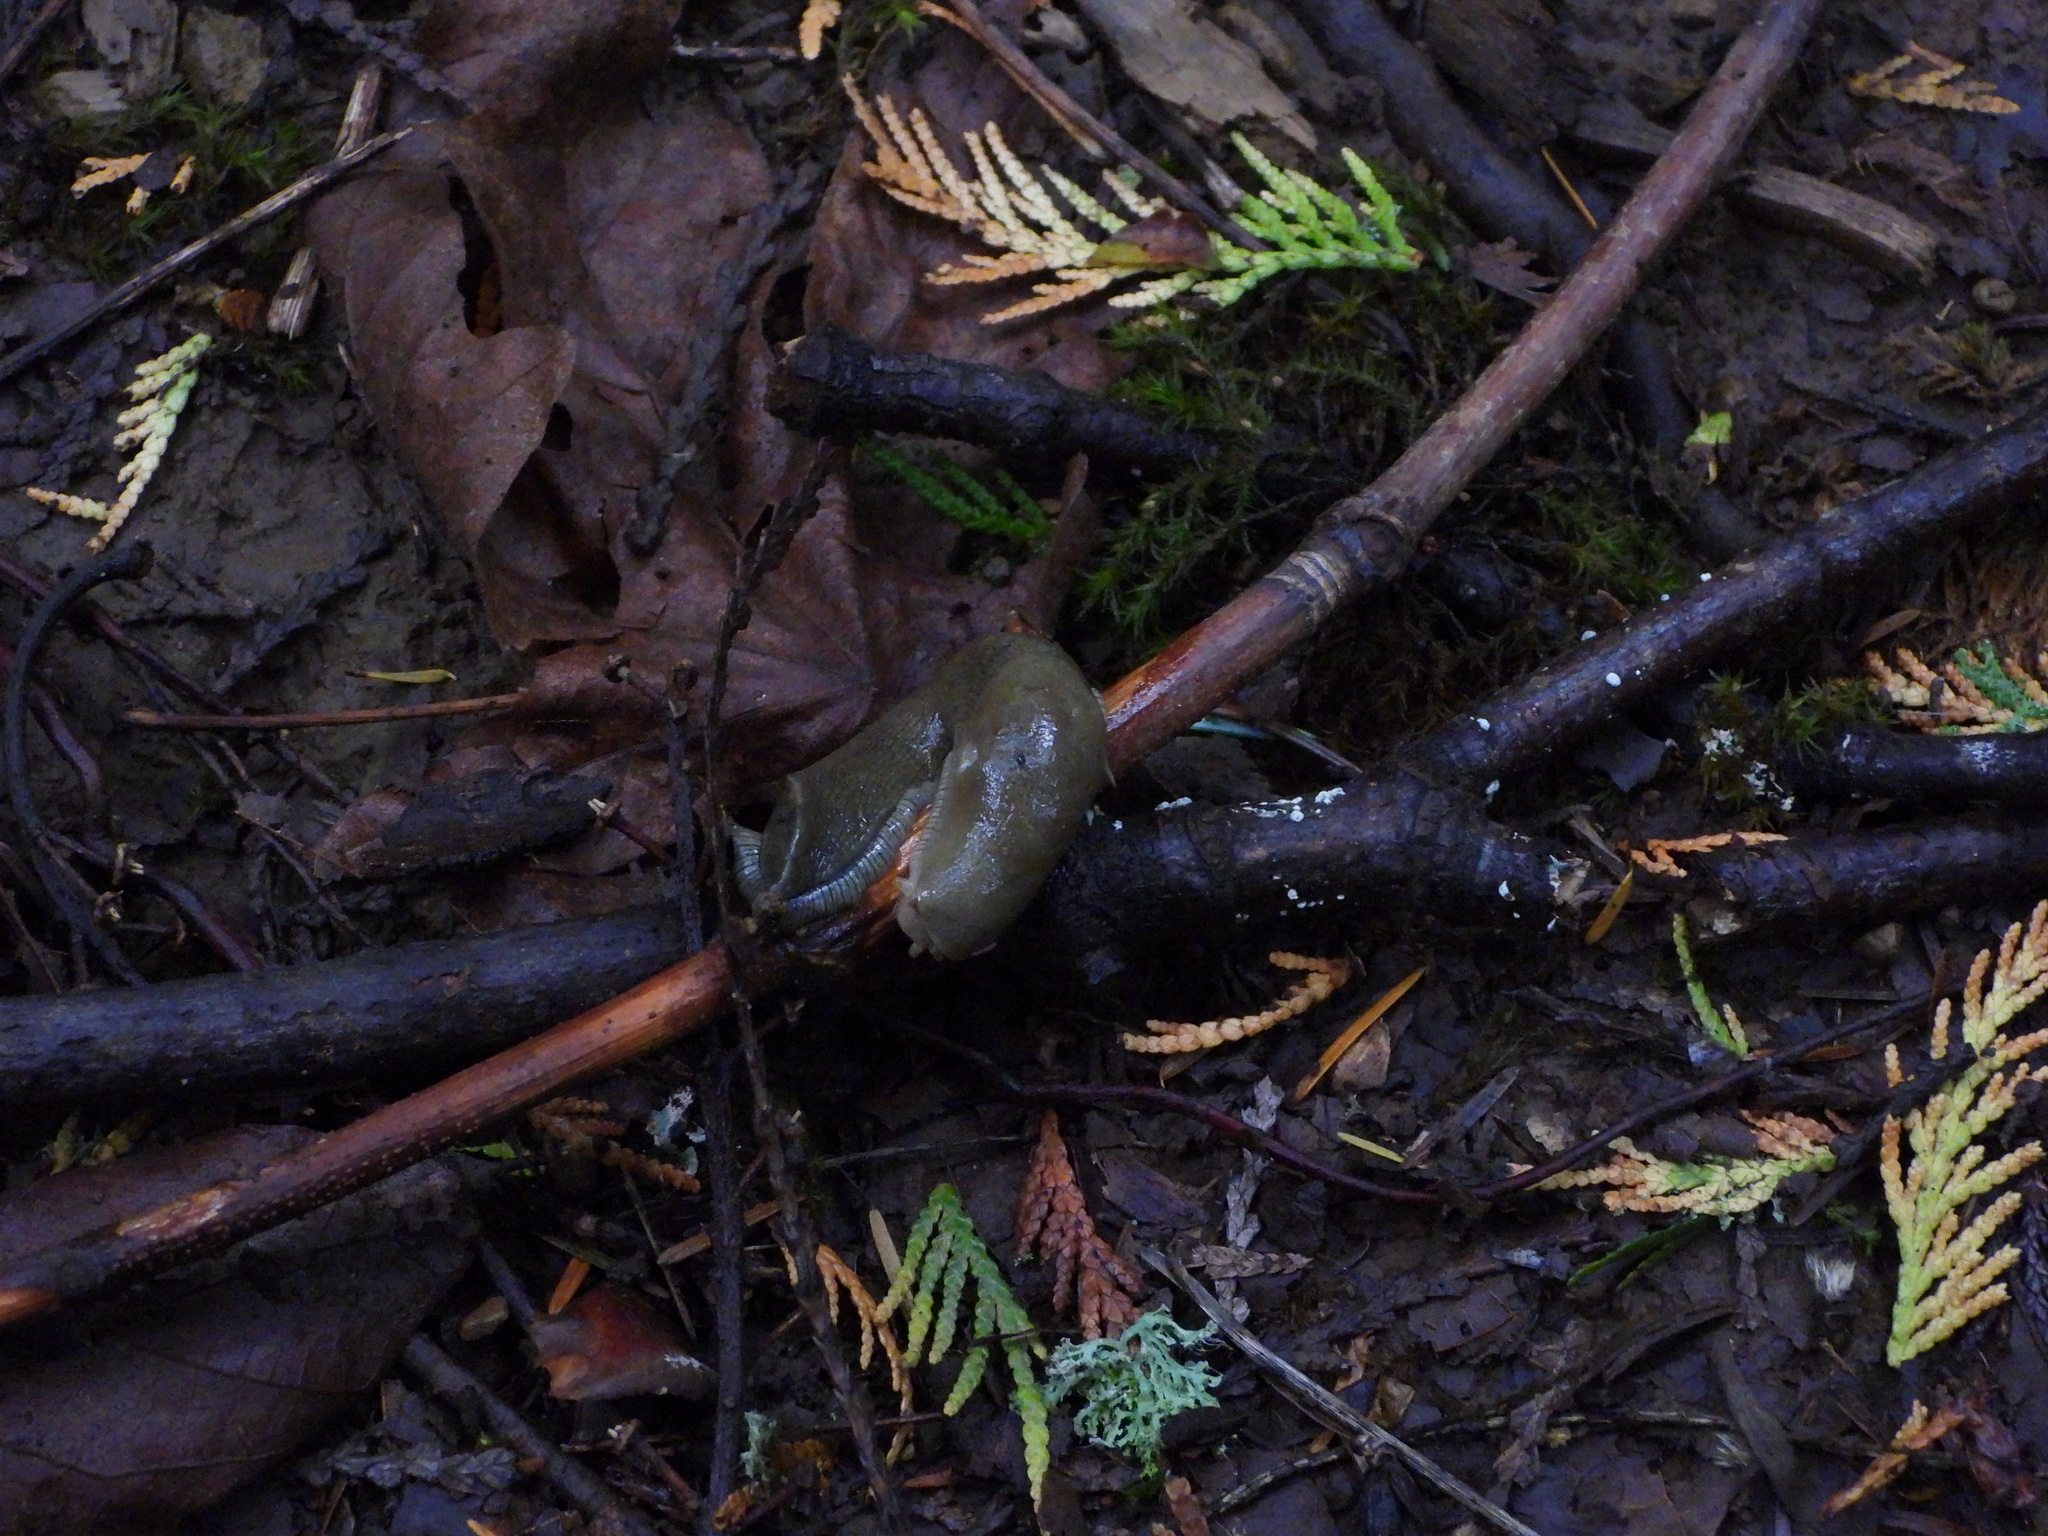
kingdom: Animalia
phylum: Mollusca
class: Gastropoda
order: Stylommatophora
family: Ariolimacidae
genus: Ariolimax
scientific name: Ariolimax columbianus
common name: Pacific banana slug
